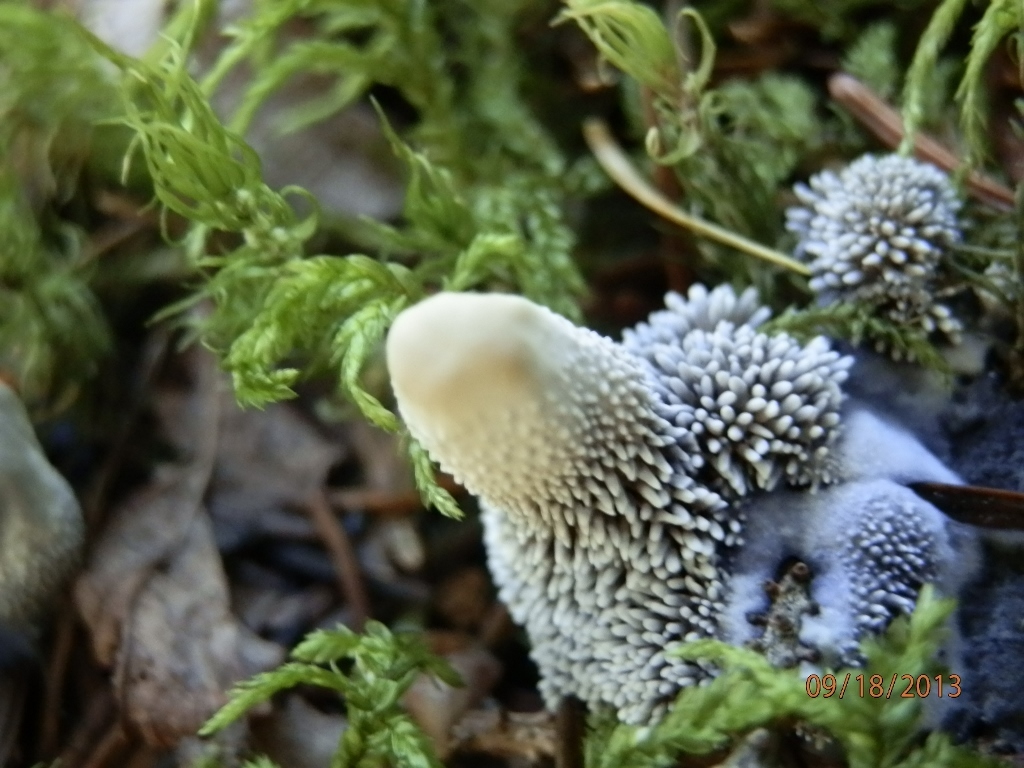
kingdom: Fungi
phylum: Basidiomycota
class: Agaricomycetes
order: Thelephorales
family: Bankeraceae
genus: Hydnellum
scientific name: Hydnellum suaveolens
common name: Sweetgrass hydnellum
